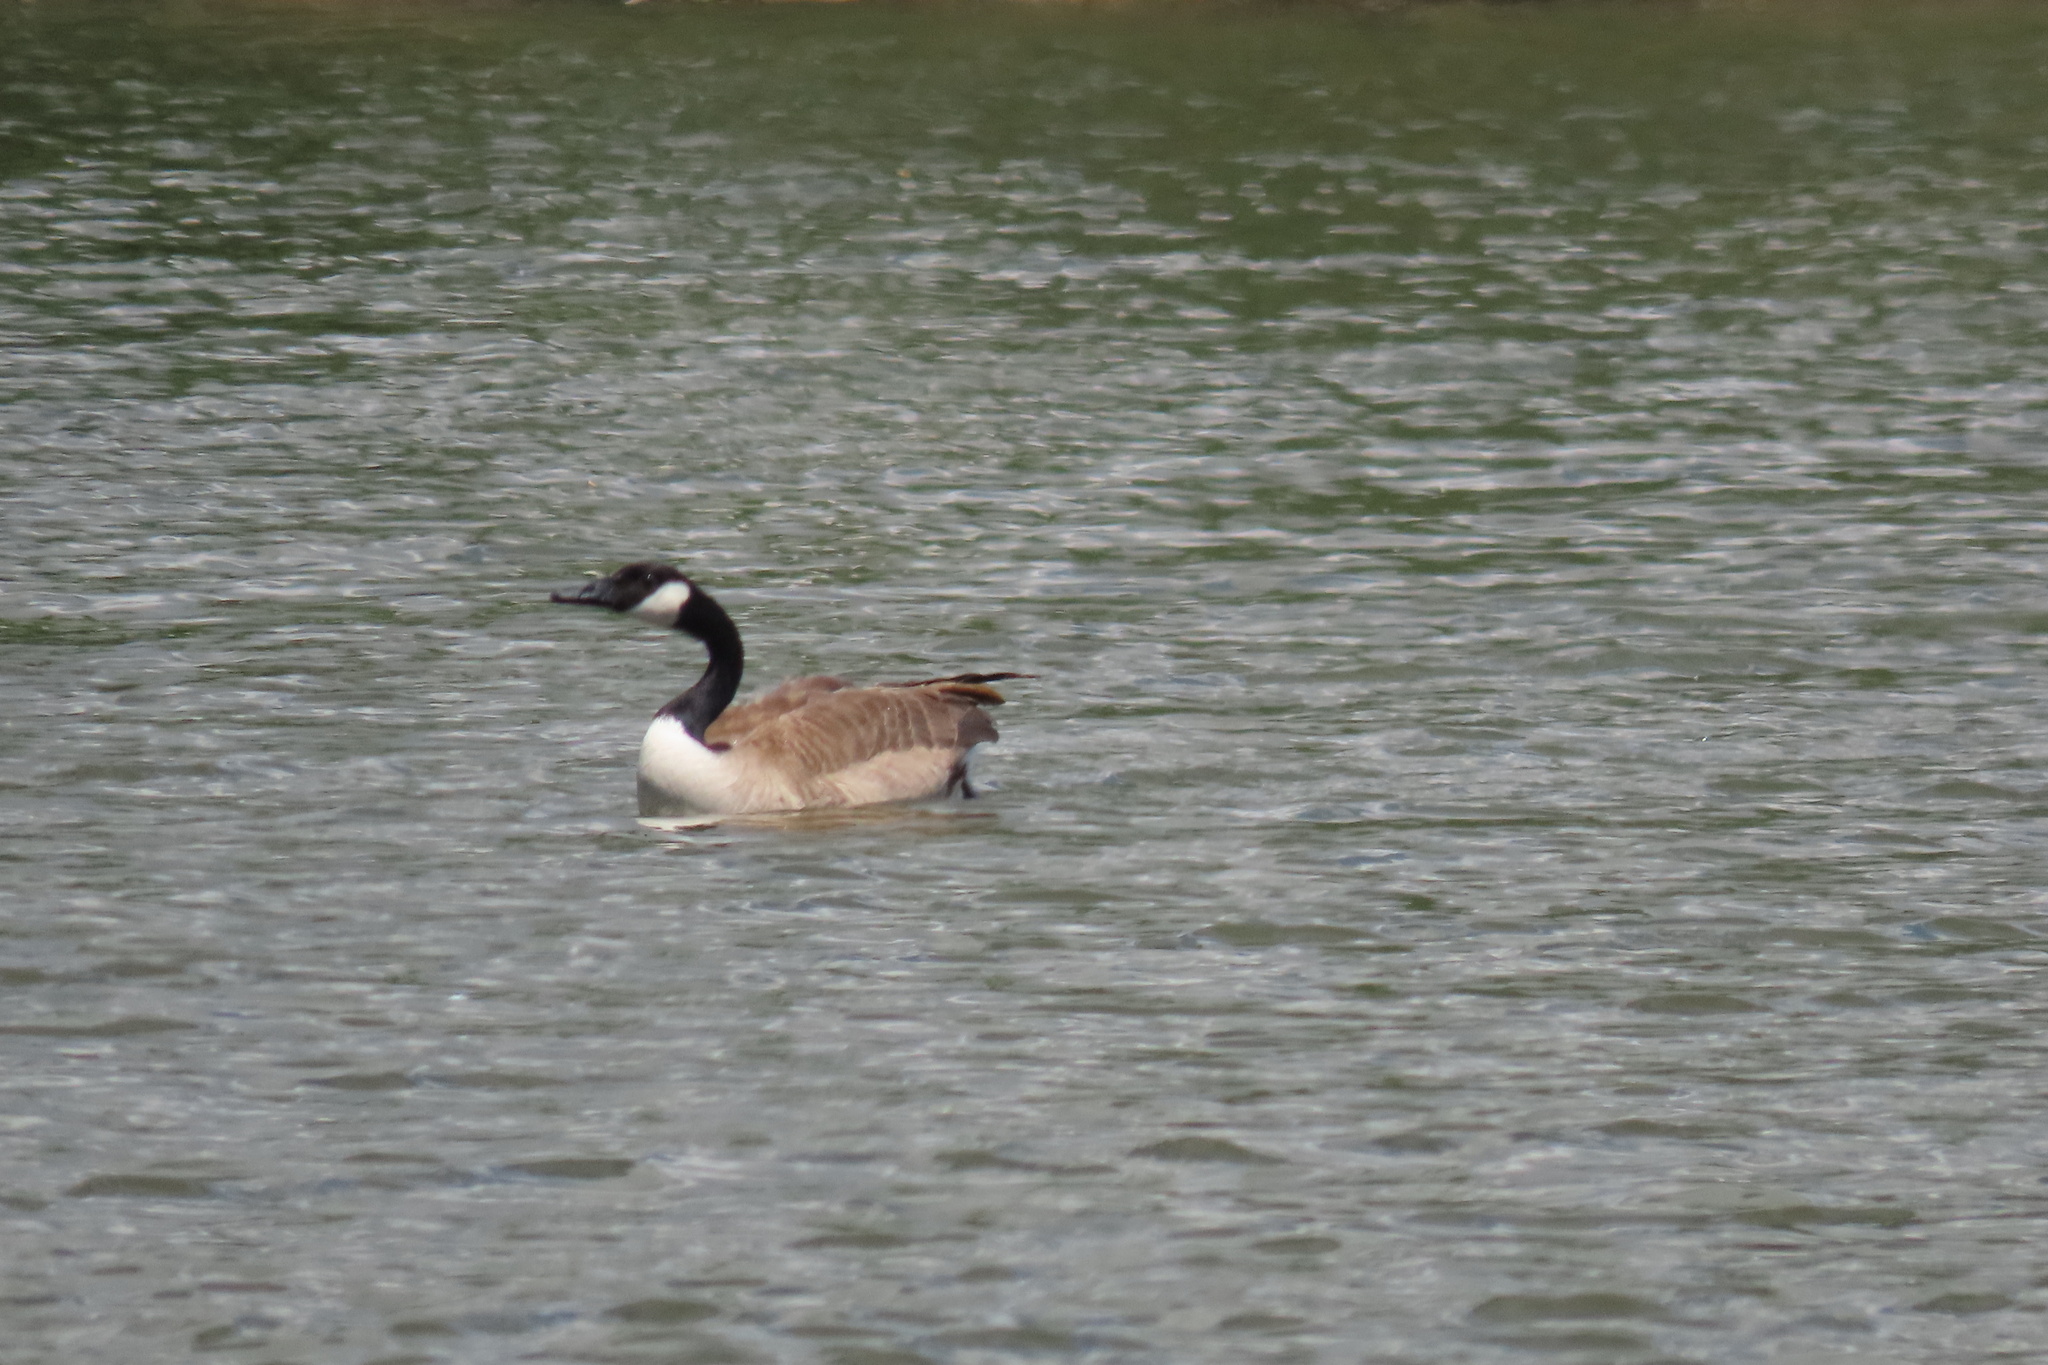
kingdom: Animalia
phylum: Chordata
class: Aves
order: Anseriformes
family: Anatidae
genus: Branta
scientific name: Branta canadensis
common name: Canada goose
